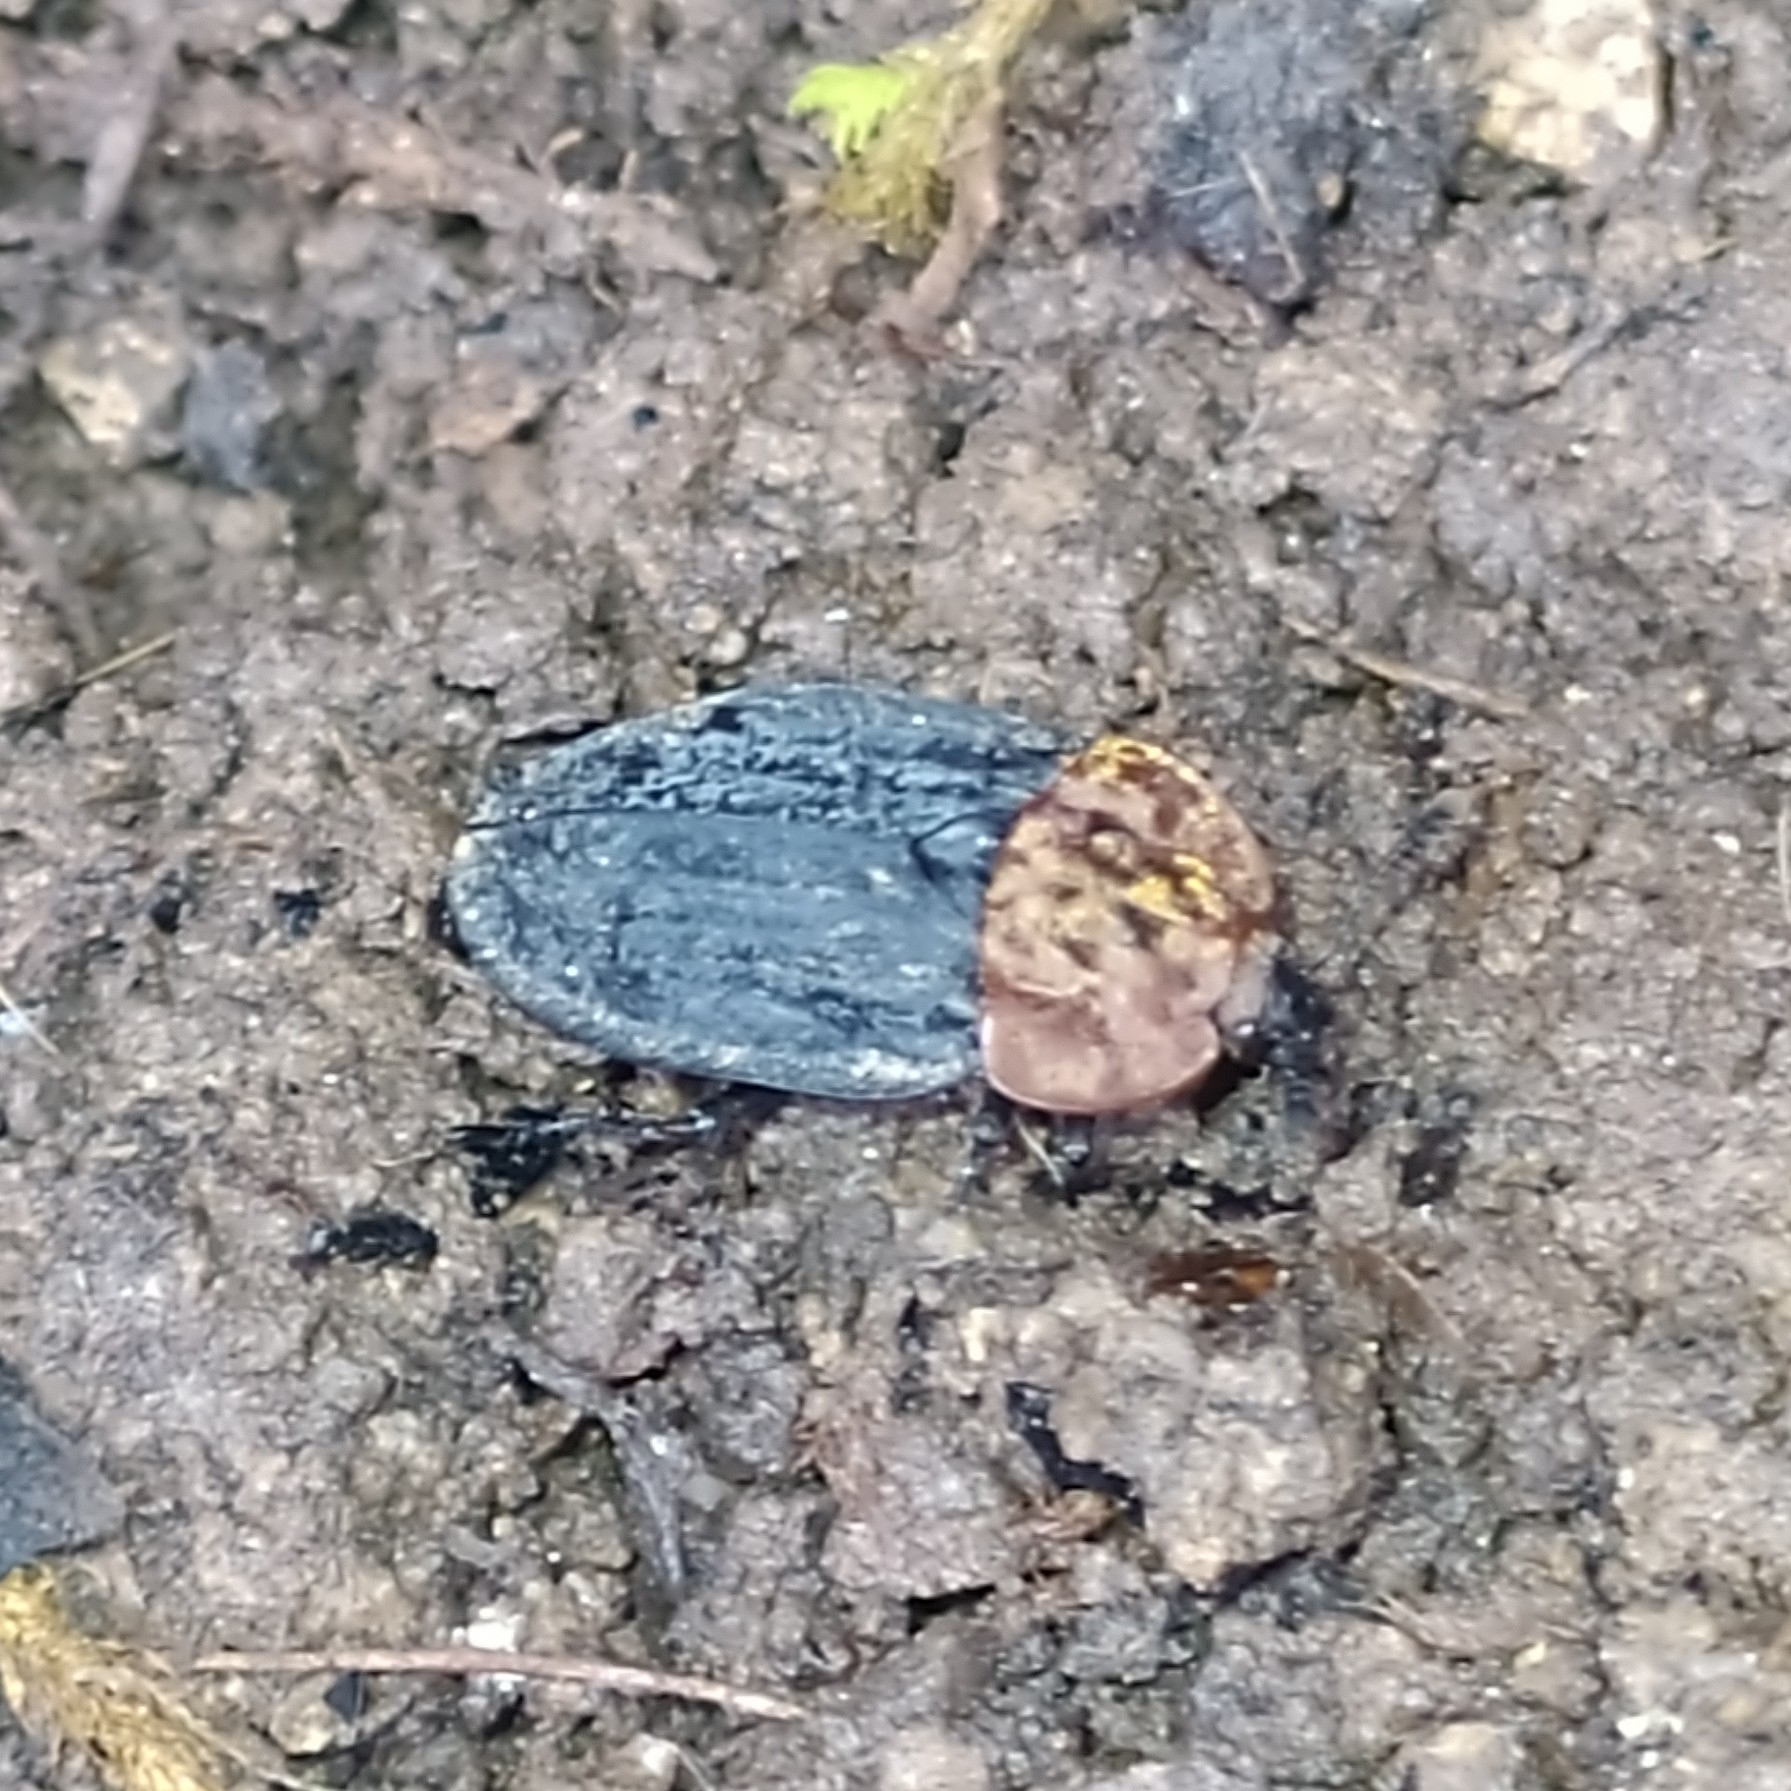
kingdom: Animalia
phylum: Arthropoda
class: Insecta
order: Coleoptera
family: Staphylinidae
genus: Oiceoptoma
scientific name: Oiceoptoma thoracicum
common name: Red-breasted carrion beetle
